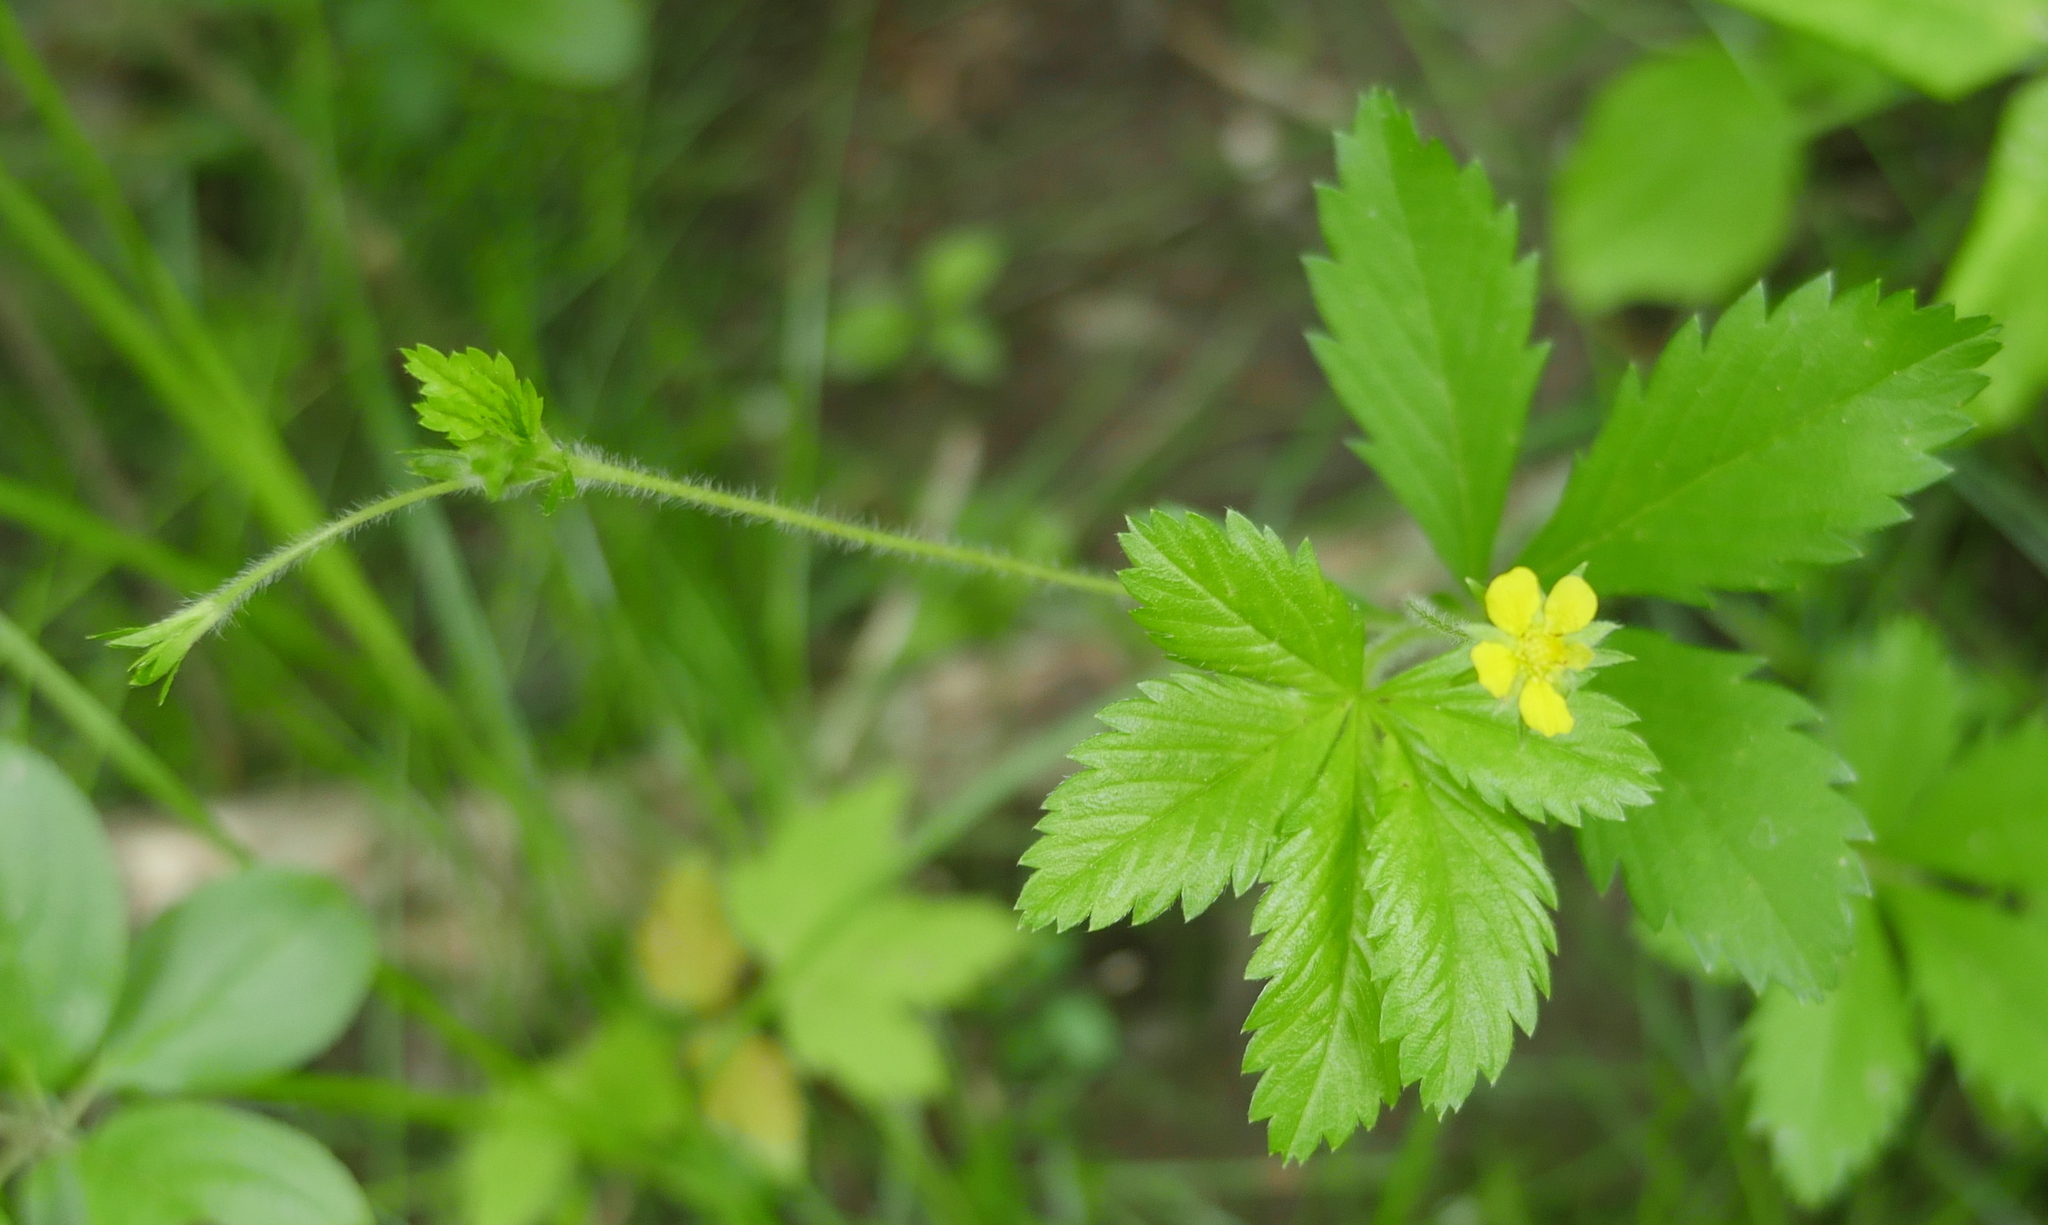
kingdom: Plantae
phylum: Tracheophyta
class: Magnoliopsida
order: Rosales
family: Rosaceae
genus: Potentilla
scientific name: Potentilla simplex
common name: Old field cinquefoil
